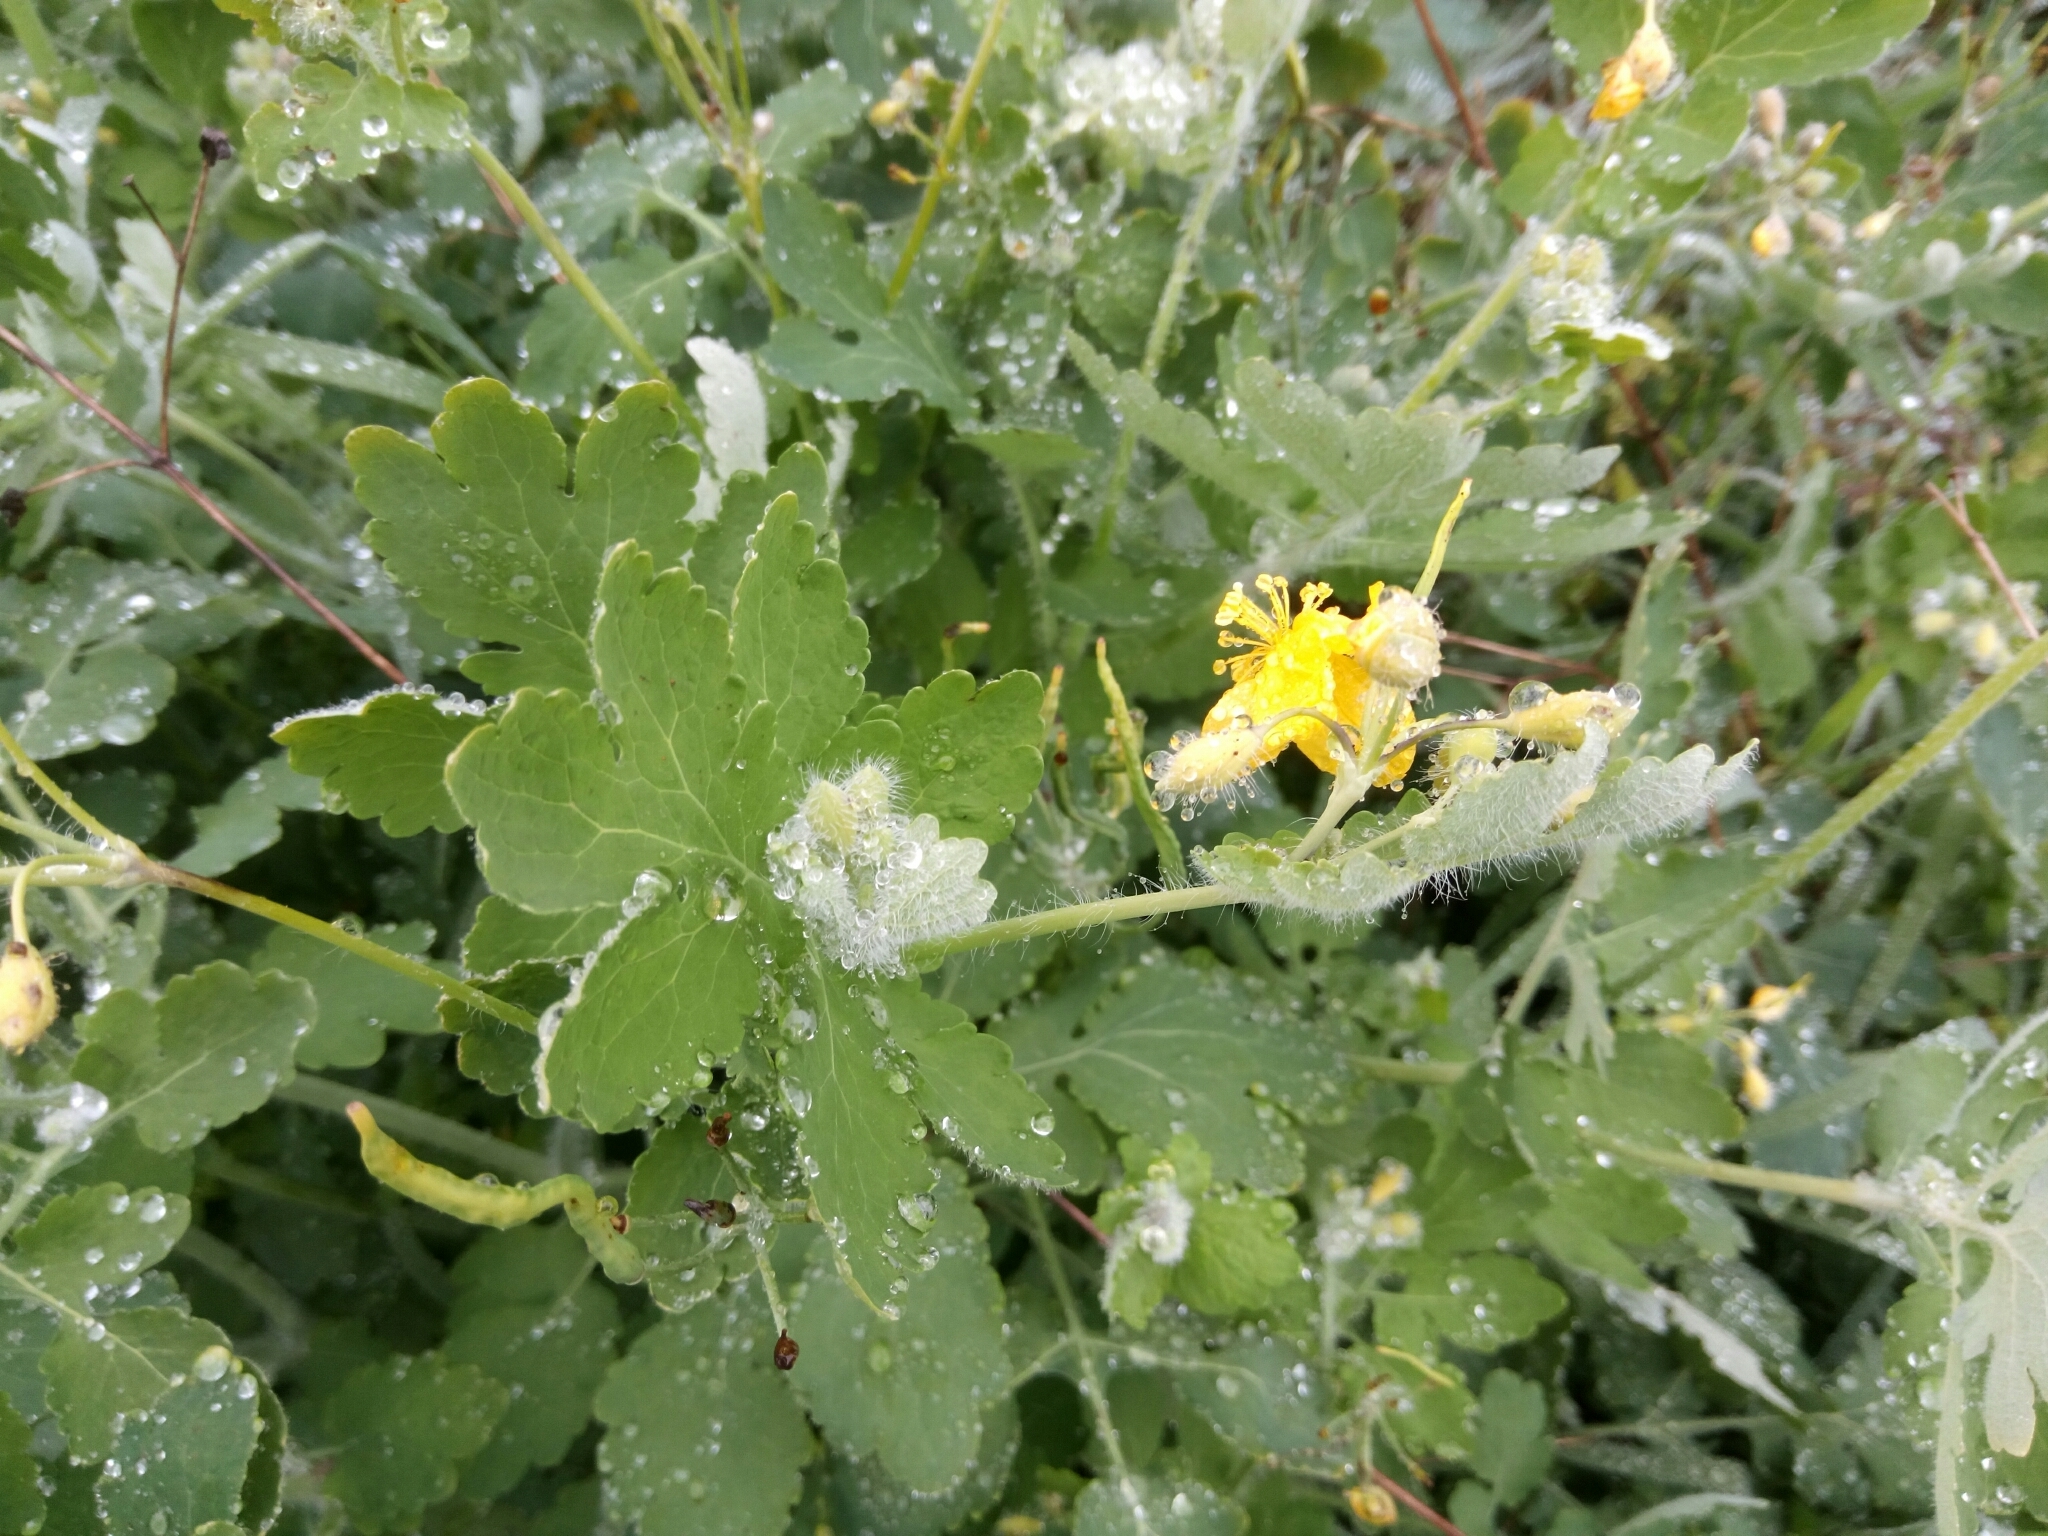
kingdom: Plantae
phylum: Tracheophyta
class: Magnoliopsida
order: Ranunculales
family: Papaveraceae
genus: Chelidonium
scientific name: Chelidonium majus
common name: Greater celandine
